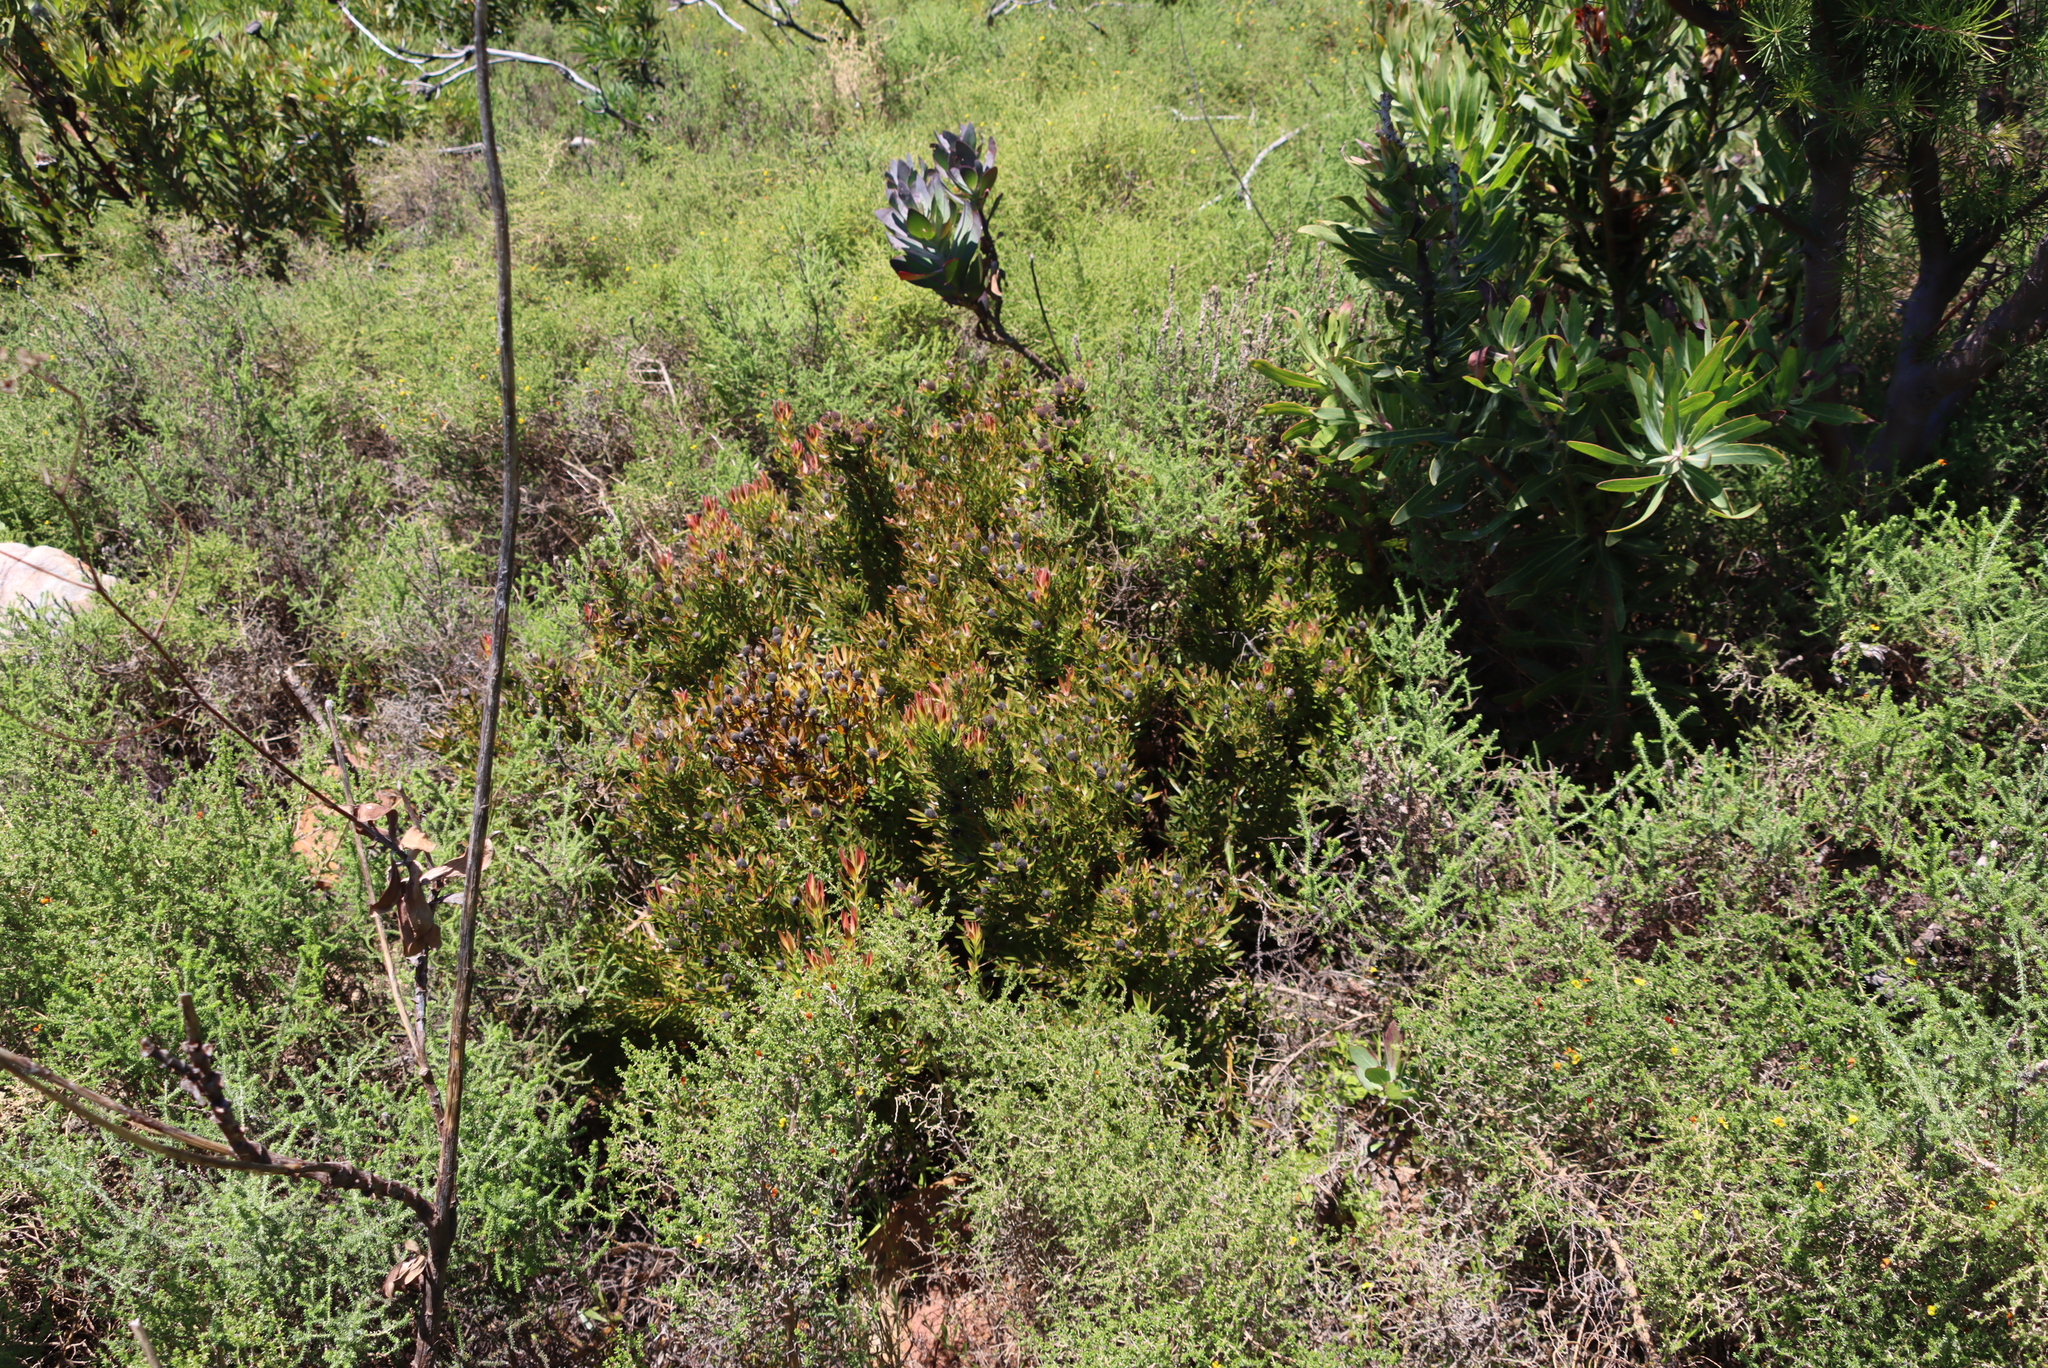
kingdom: Plantae
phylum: Tracheophyta
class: Magnoliopsida
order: Proteales
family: Proteaceae
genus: Leucadendron
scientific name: Leucadendron spissifolium
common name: Spear-leaf conebush
